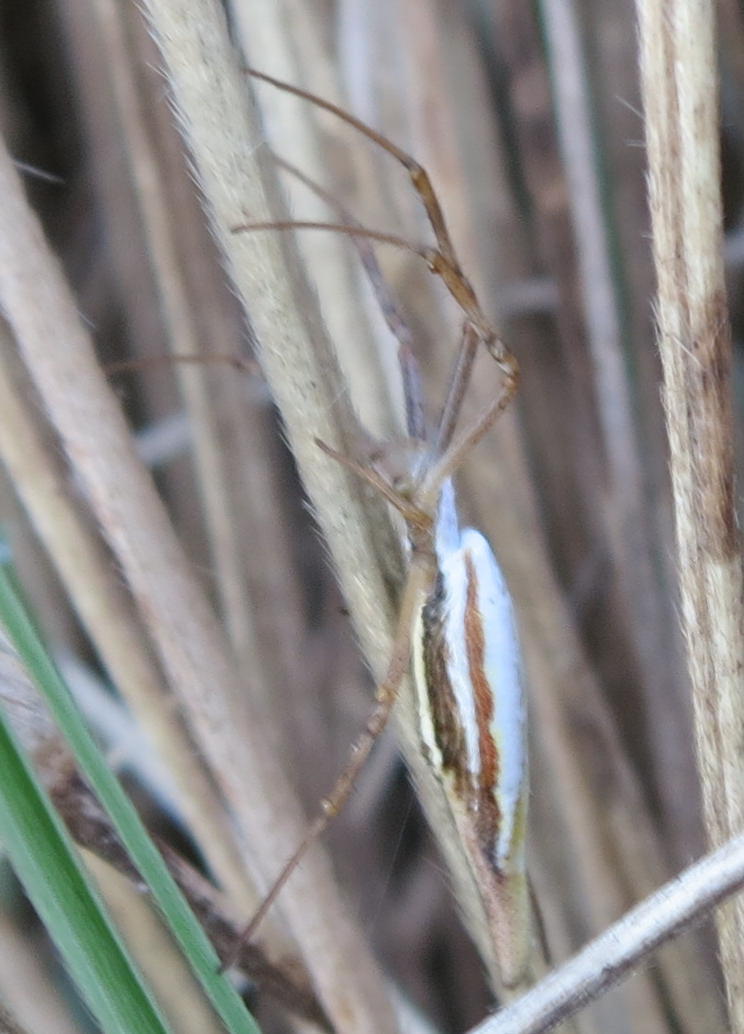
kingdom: Animalia
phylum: Arthropoda
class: Arachnida
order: Araneae
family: Araneidae
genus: Argiope
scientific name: Argiope protensa
